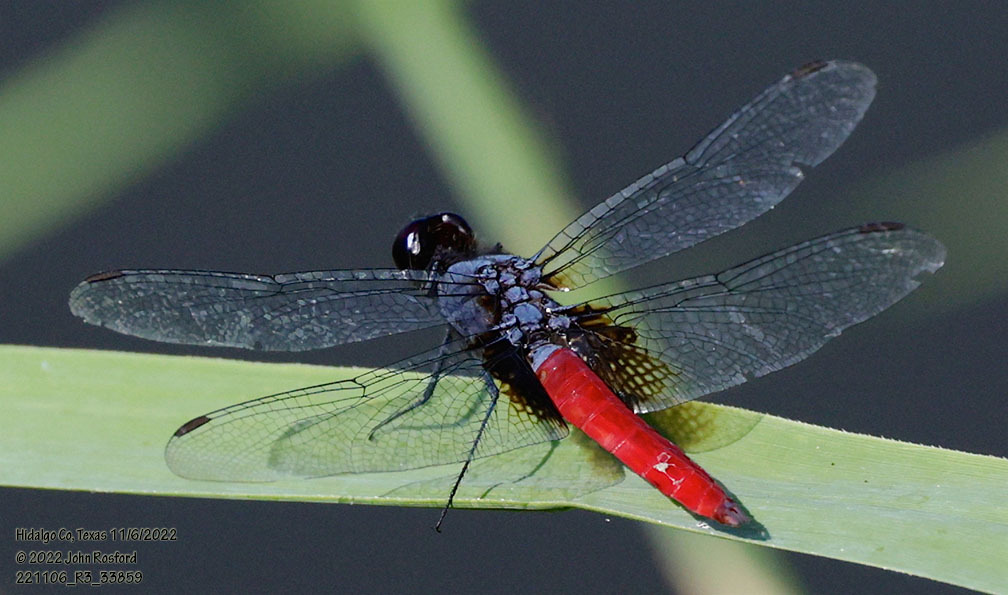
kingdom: Animalia
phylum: Arthropoda
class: Insecta
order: Odonata
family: Libellulidae
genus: Planiplax
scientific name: Planiplax sanguiniventris
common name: Mexican scarlet-tail
